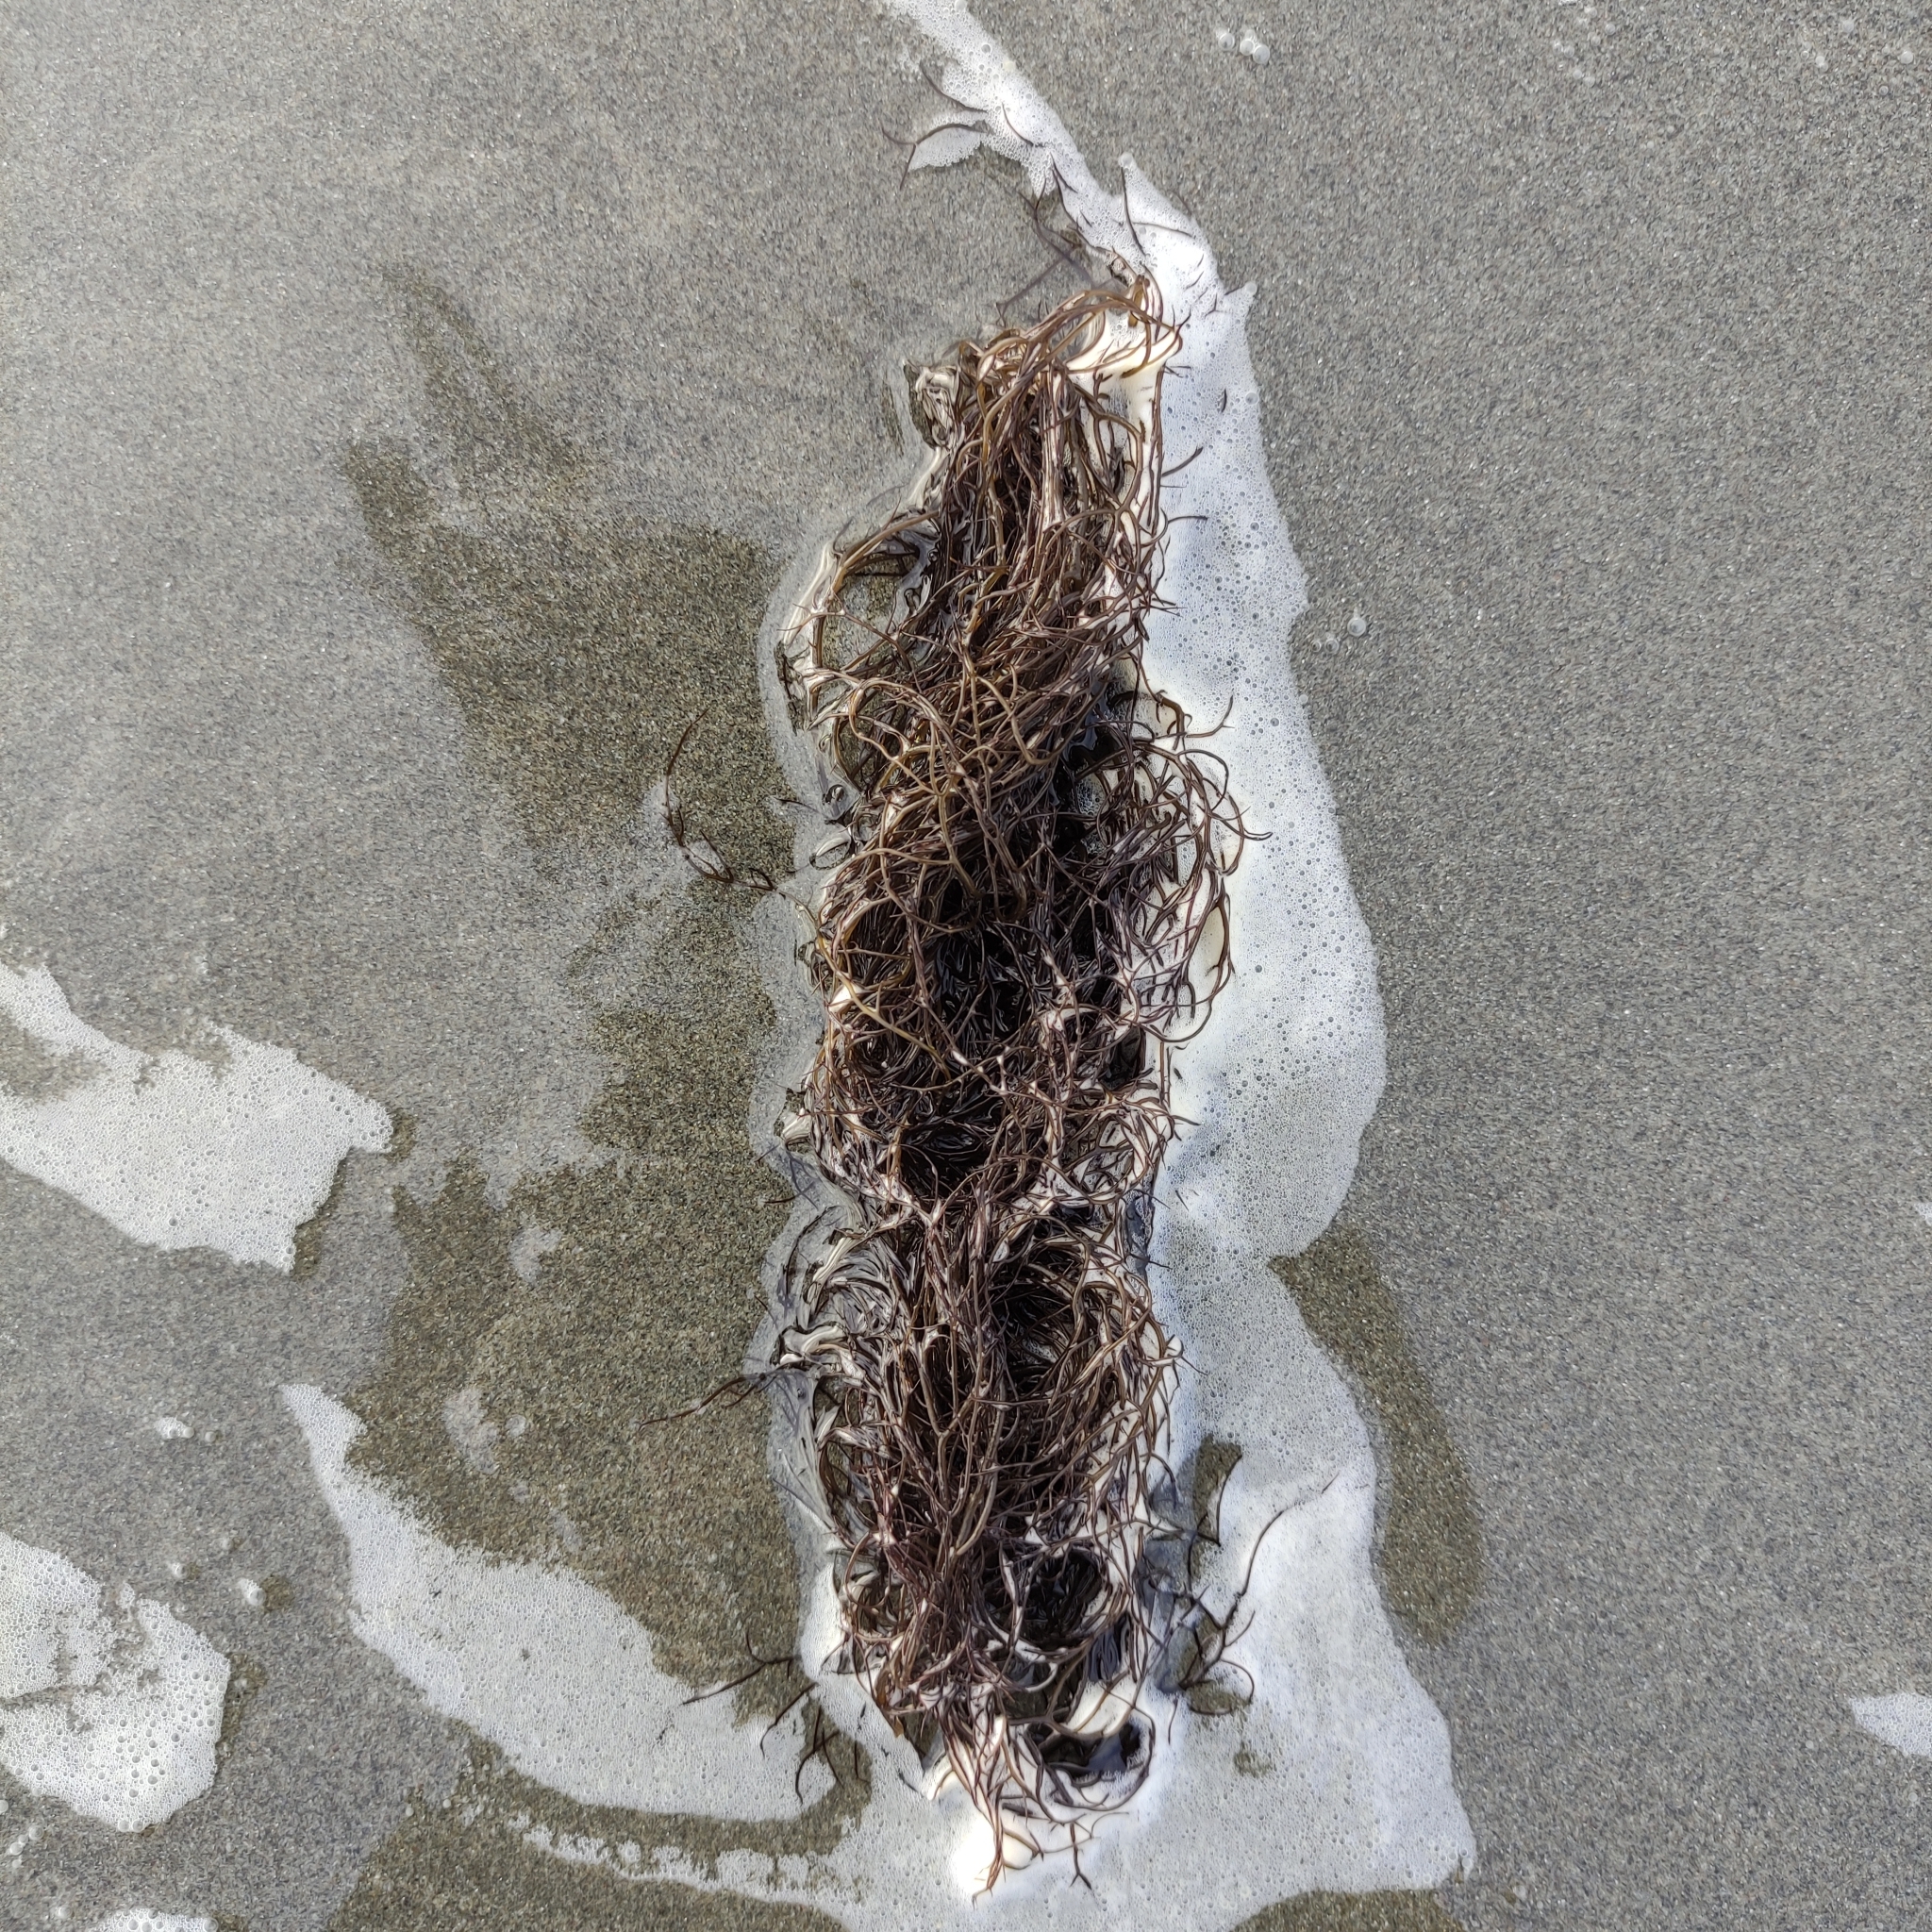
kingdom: Plantae
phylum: Rhodophyta
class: Florideophyceae
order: Gracilariales
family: Gracilariaceae
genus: Gracilaria
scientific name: Gracilaria chilensis
